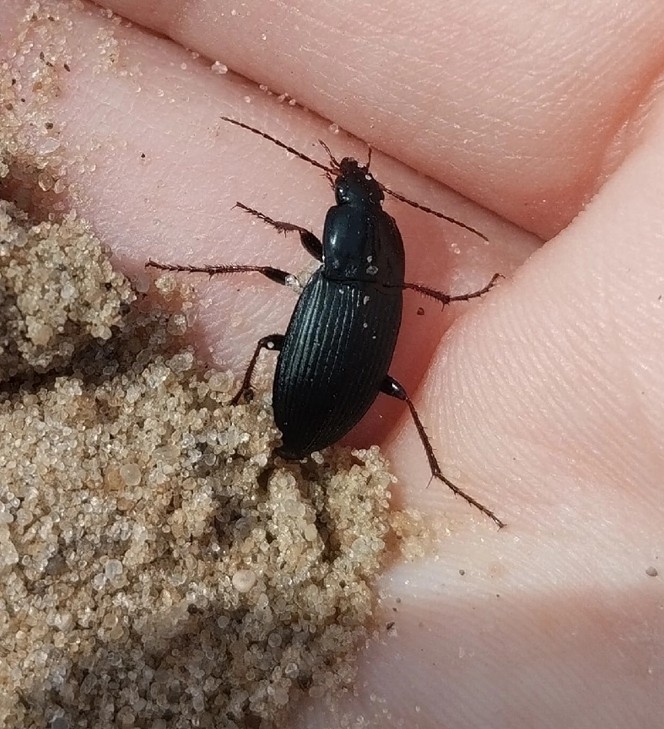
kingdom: Animalia
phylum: Arthropoda
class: Insecta
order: Coleoptera
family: Carabidae
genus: Calathus
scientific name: Calathus fuscipes
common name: Dark-footed harp ground beetle
